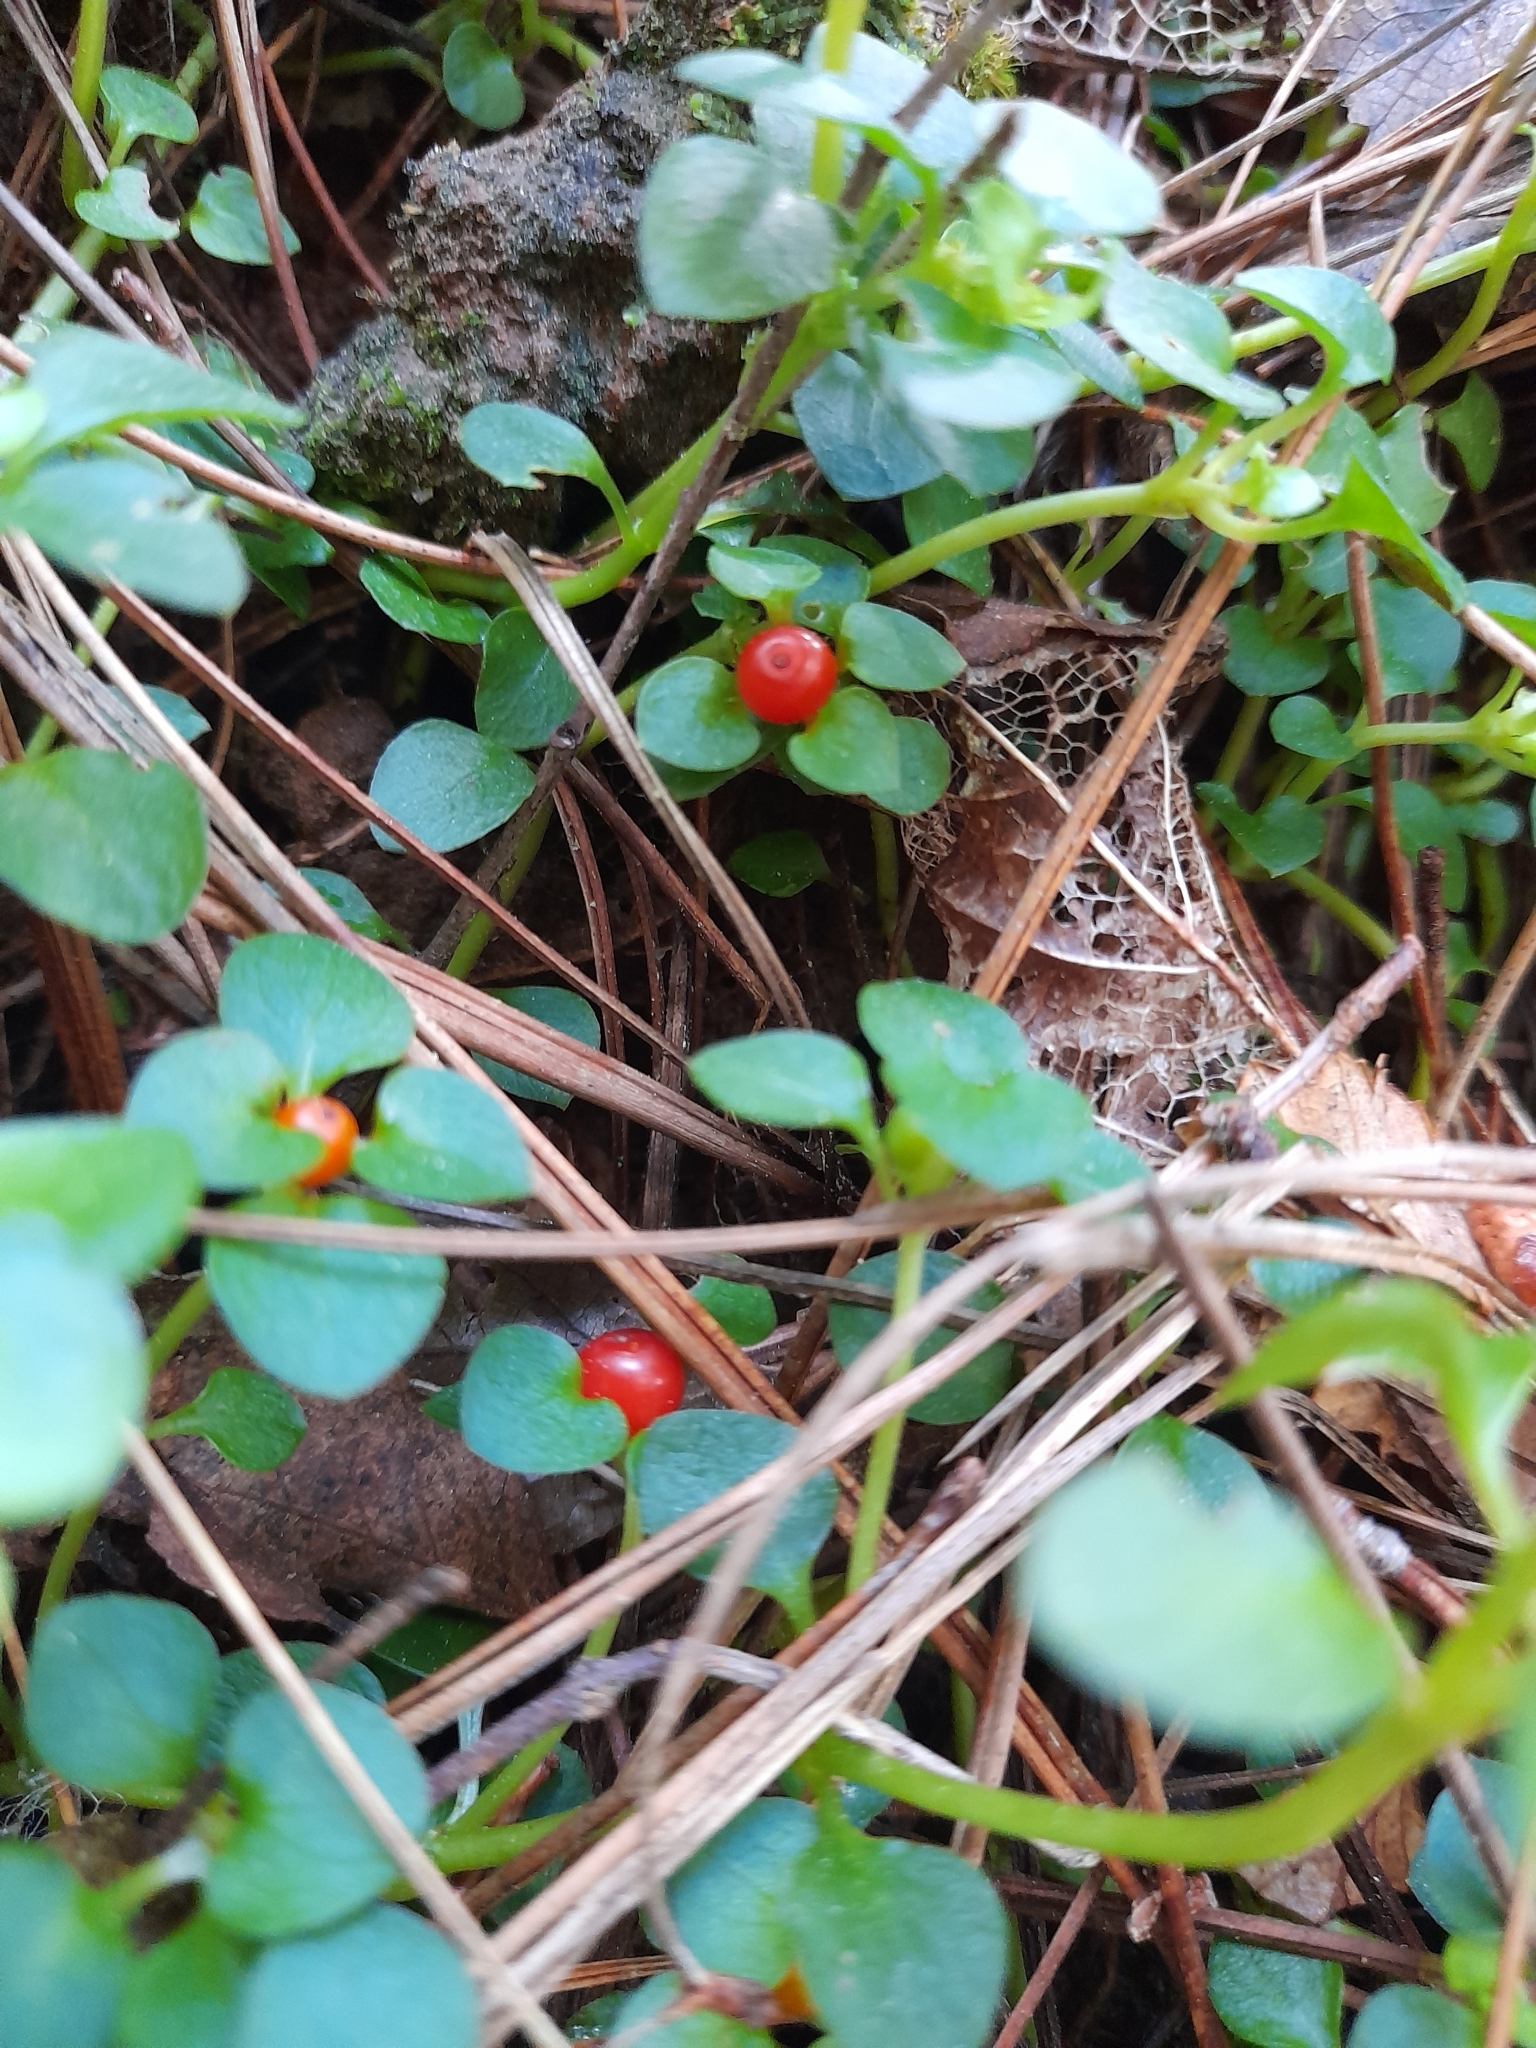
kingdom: Plantae
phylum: Tracheophyta
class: Magnoliopsida
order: Gentianales
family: Rubiaceae
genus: Nertera
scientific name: Nertera granadensis
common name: Beadplant
